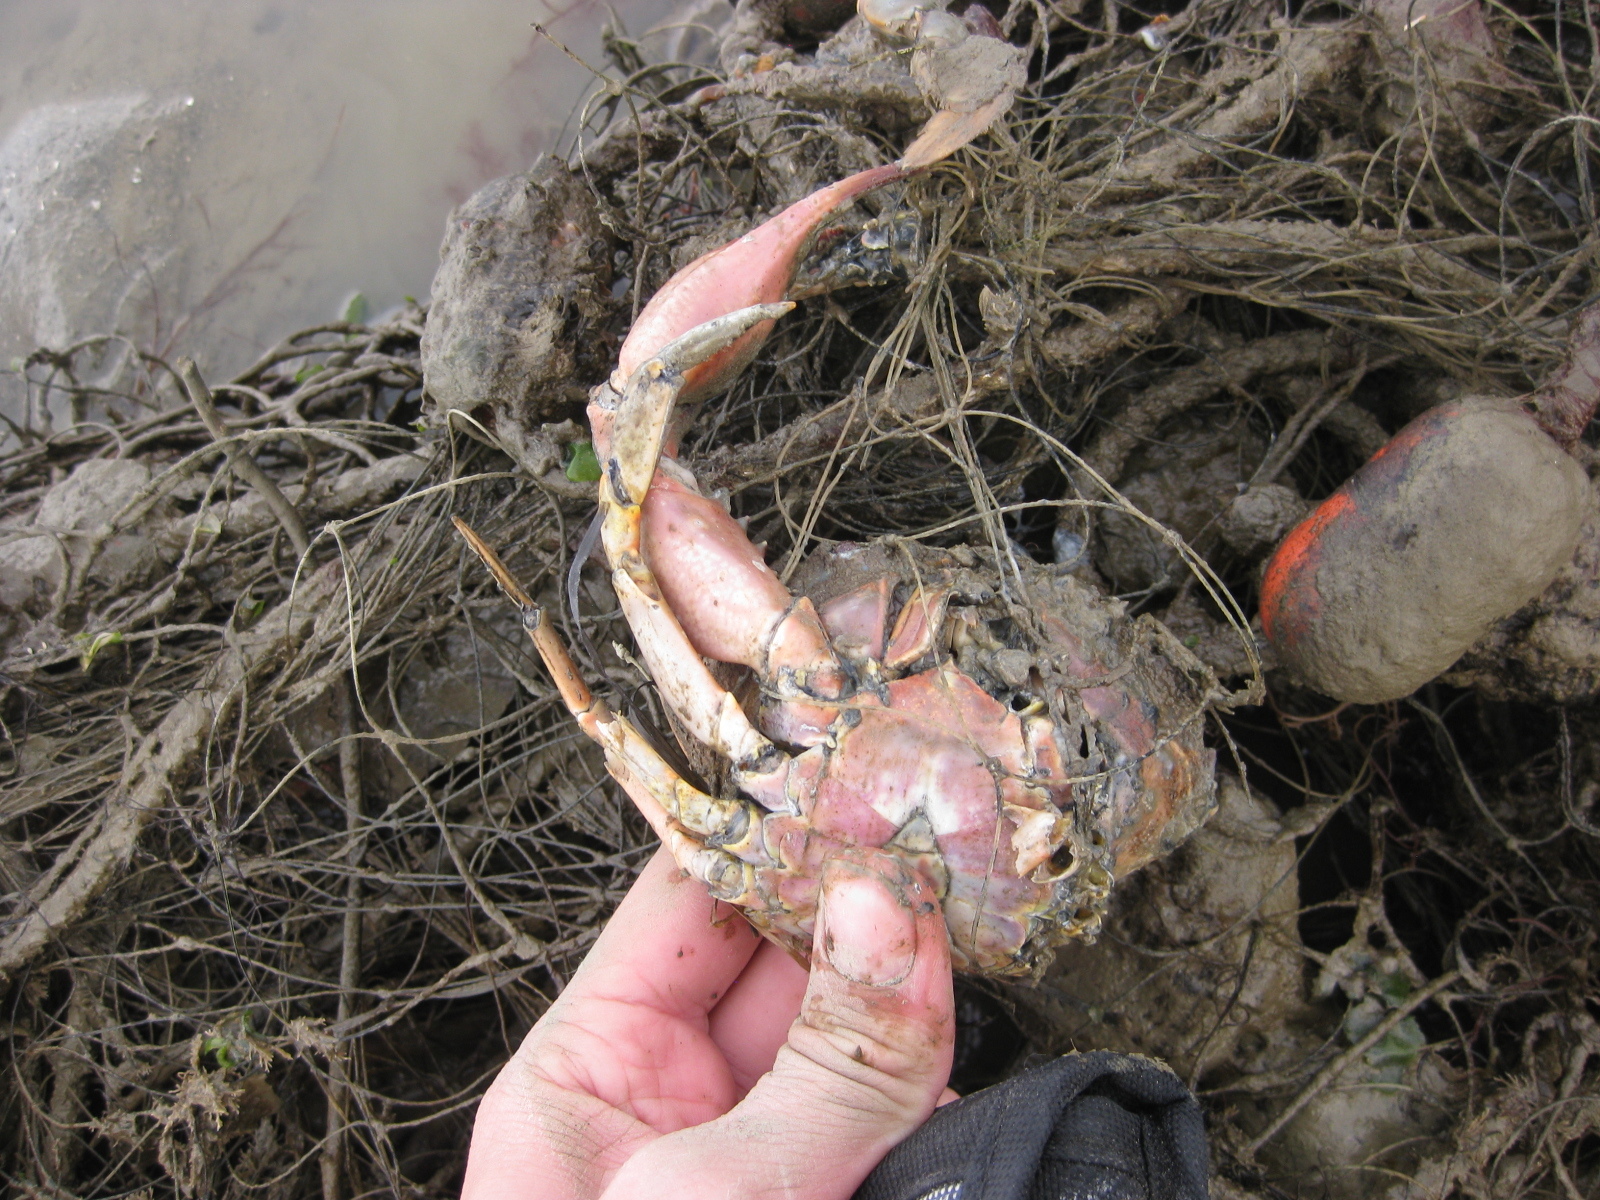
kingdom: Animalia
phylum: Arthropoda
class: Malacostraca
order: Decapoda
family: Portunidae
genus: Charybdis
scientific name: Charybdis japonica
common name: Asian paddle crab
